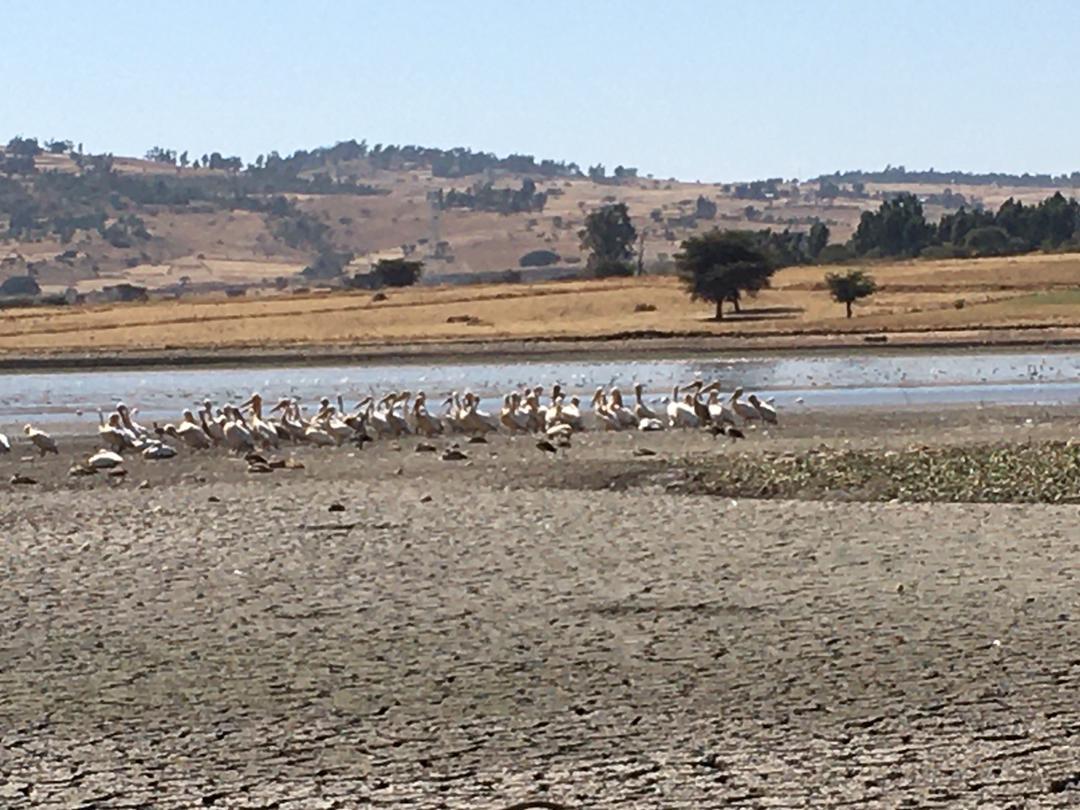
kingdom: Animalia
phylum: Chordata
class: Aves
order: Pelecaniformes
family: Pelecanidae
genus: Pelecanus
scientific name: Pelecanus onocrotalus
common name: Great white pelican
